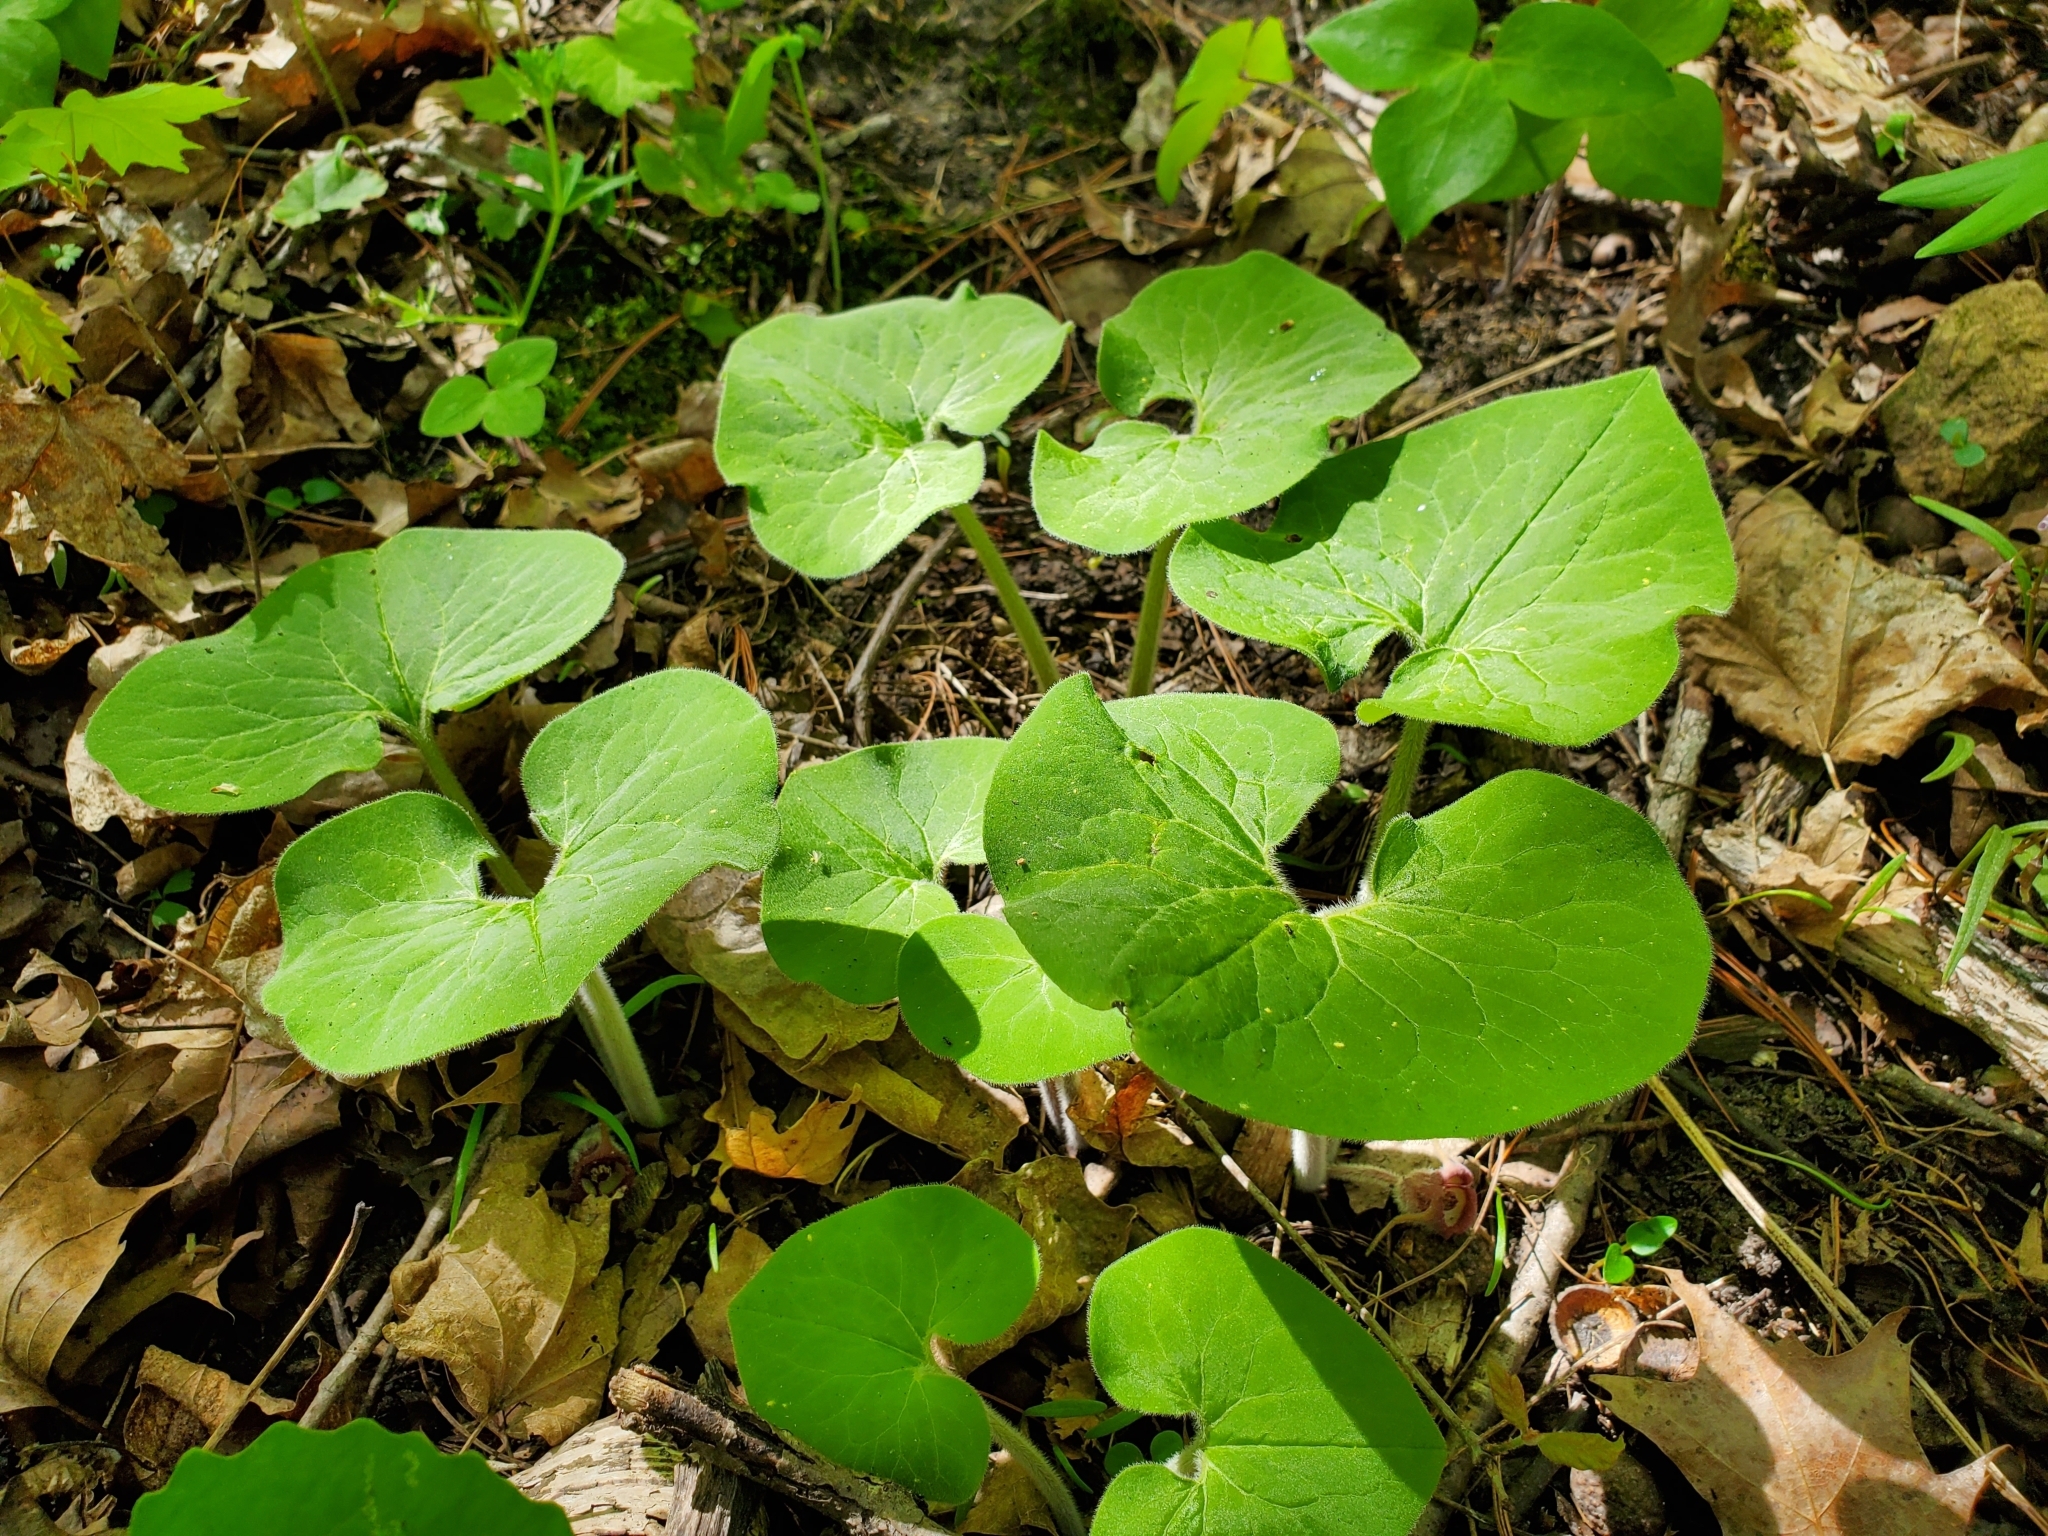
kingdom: Plantae
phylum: Tracheophyta
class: Magnoliopsida
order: Piperales
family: Aristolochiaceae
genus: Asarum
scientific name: Asarum canadense
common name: Wild ginger
